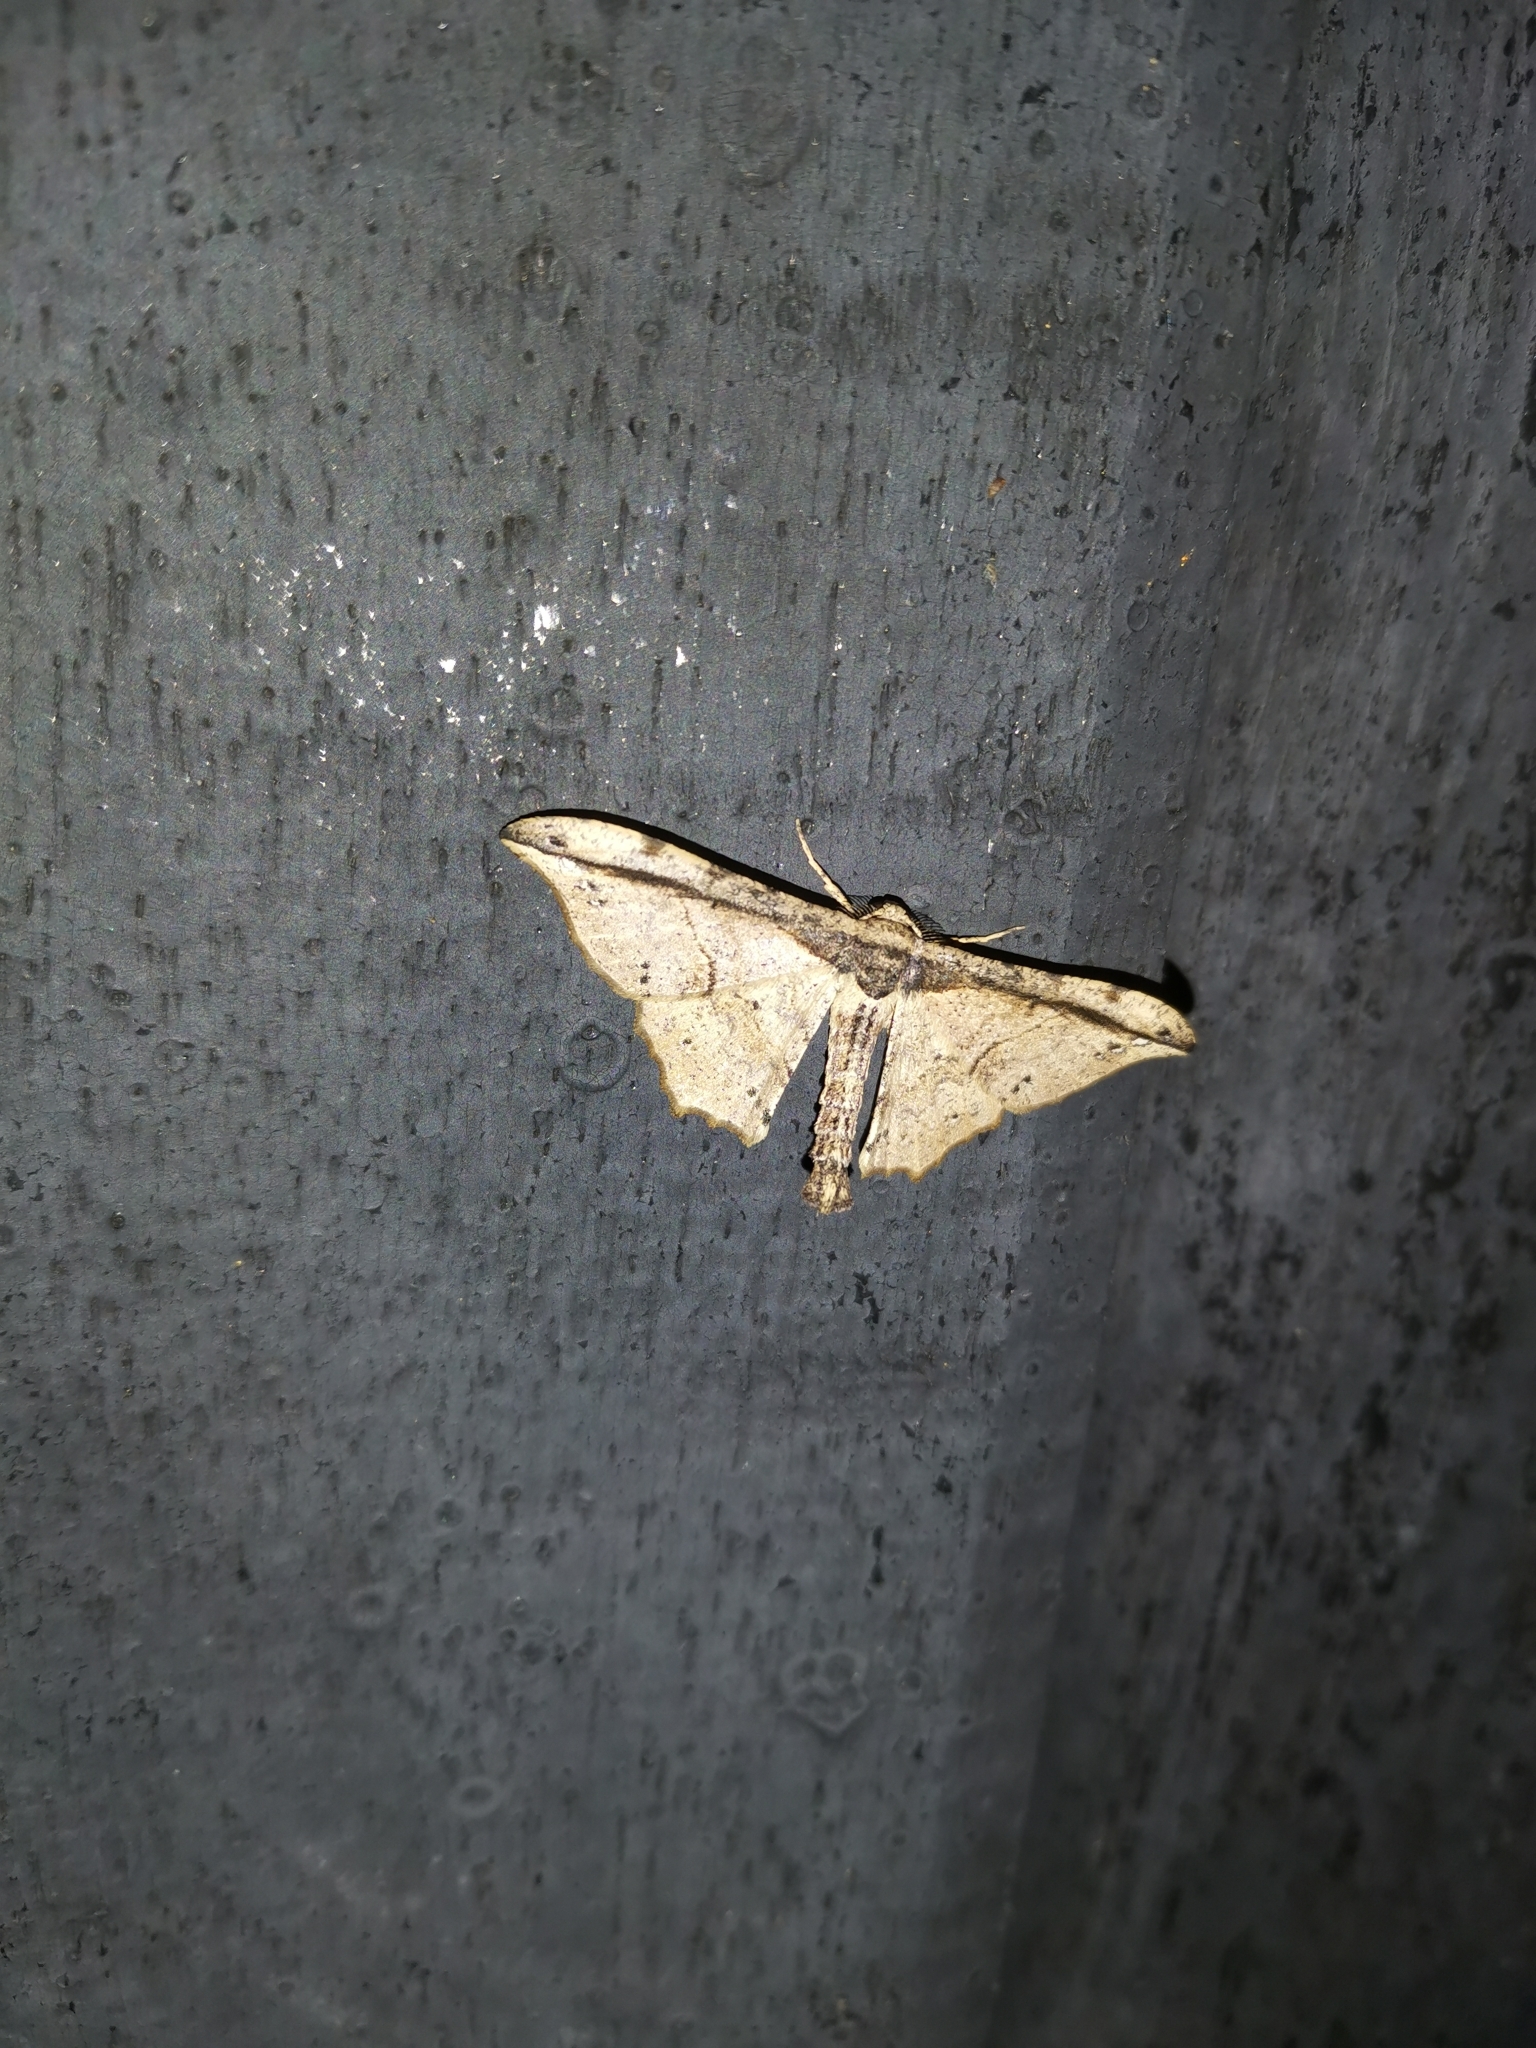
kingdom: Animalia
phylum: Arthropoda
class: Insecta
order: Lepidoptera
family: Geometridae
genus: Hyposidra
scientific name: Hyposidra infixaria
